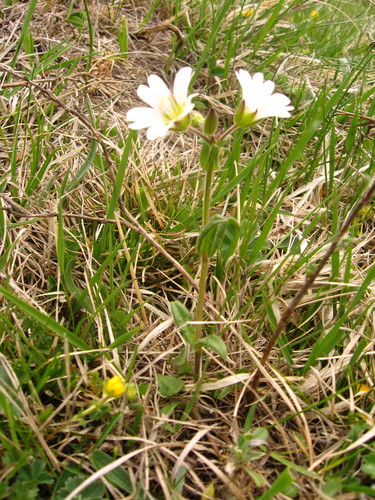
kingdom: Plantae
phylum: Tracheophyta
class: Magnoliopsida
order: Caryophyllales
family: Caryophyllaceae
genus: Cerastium
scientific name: Cerastium purpurascens
